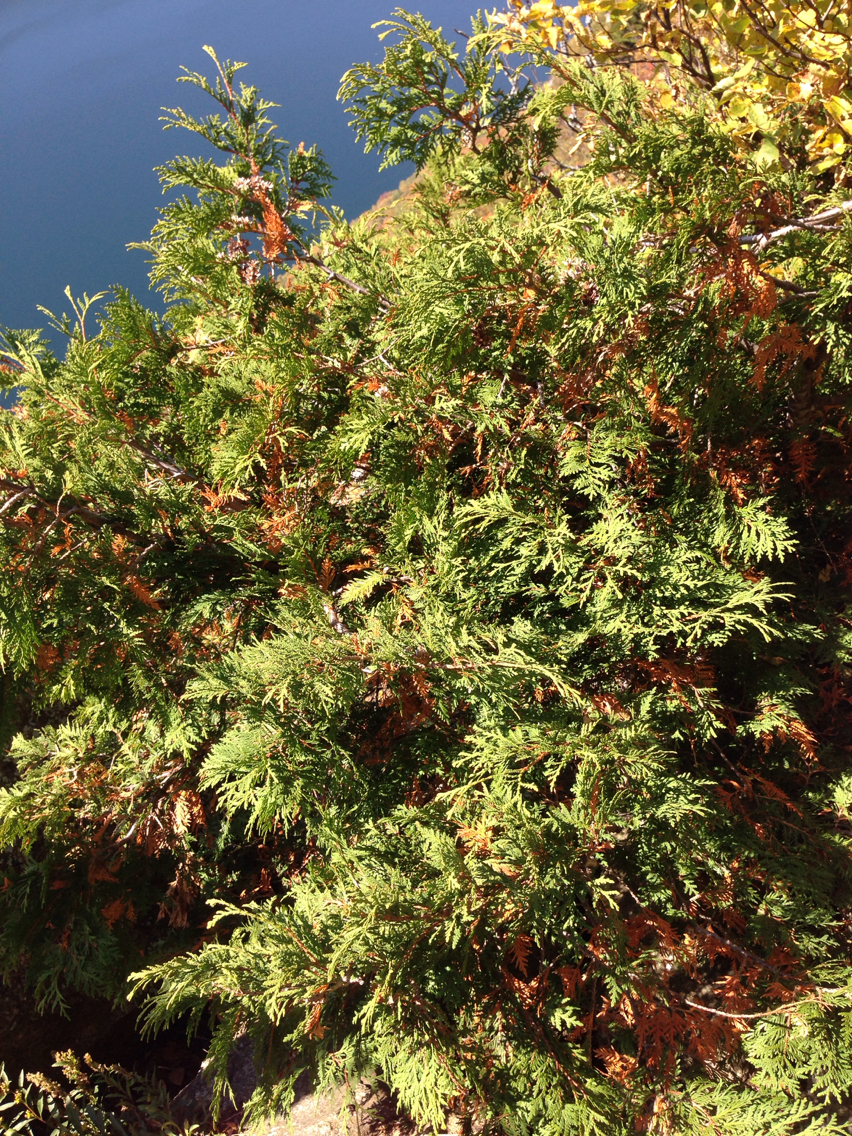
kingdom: Plantae
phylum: Tracheophyta
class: Pinopsida
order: Pinales
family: Cupressaceae
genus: Thuja
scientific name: Thuja occidentalis
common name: Northern white-cedar
